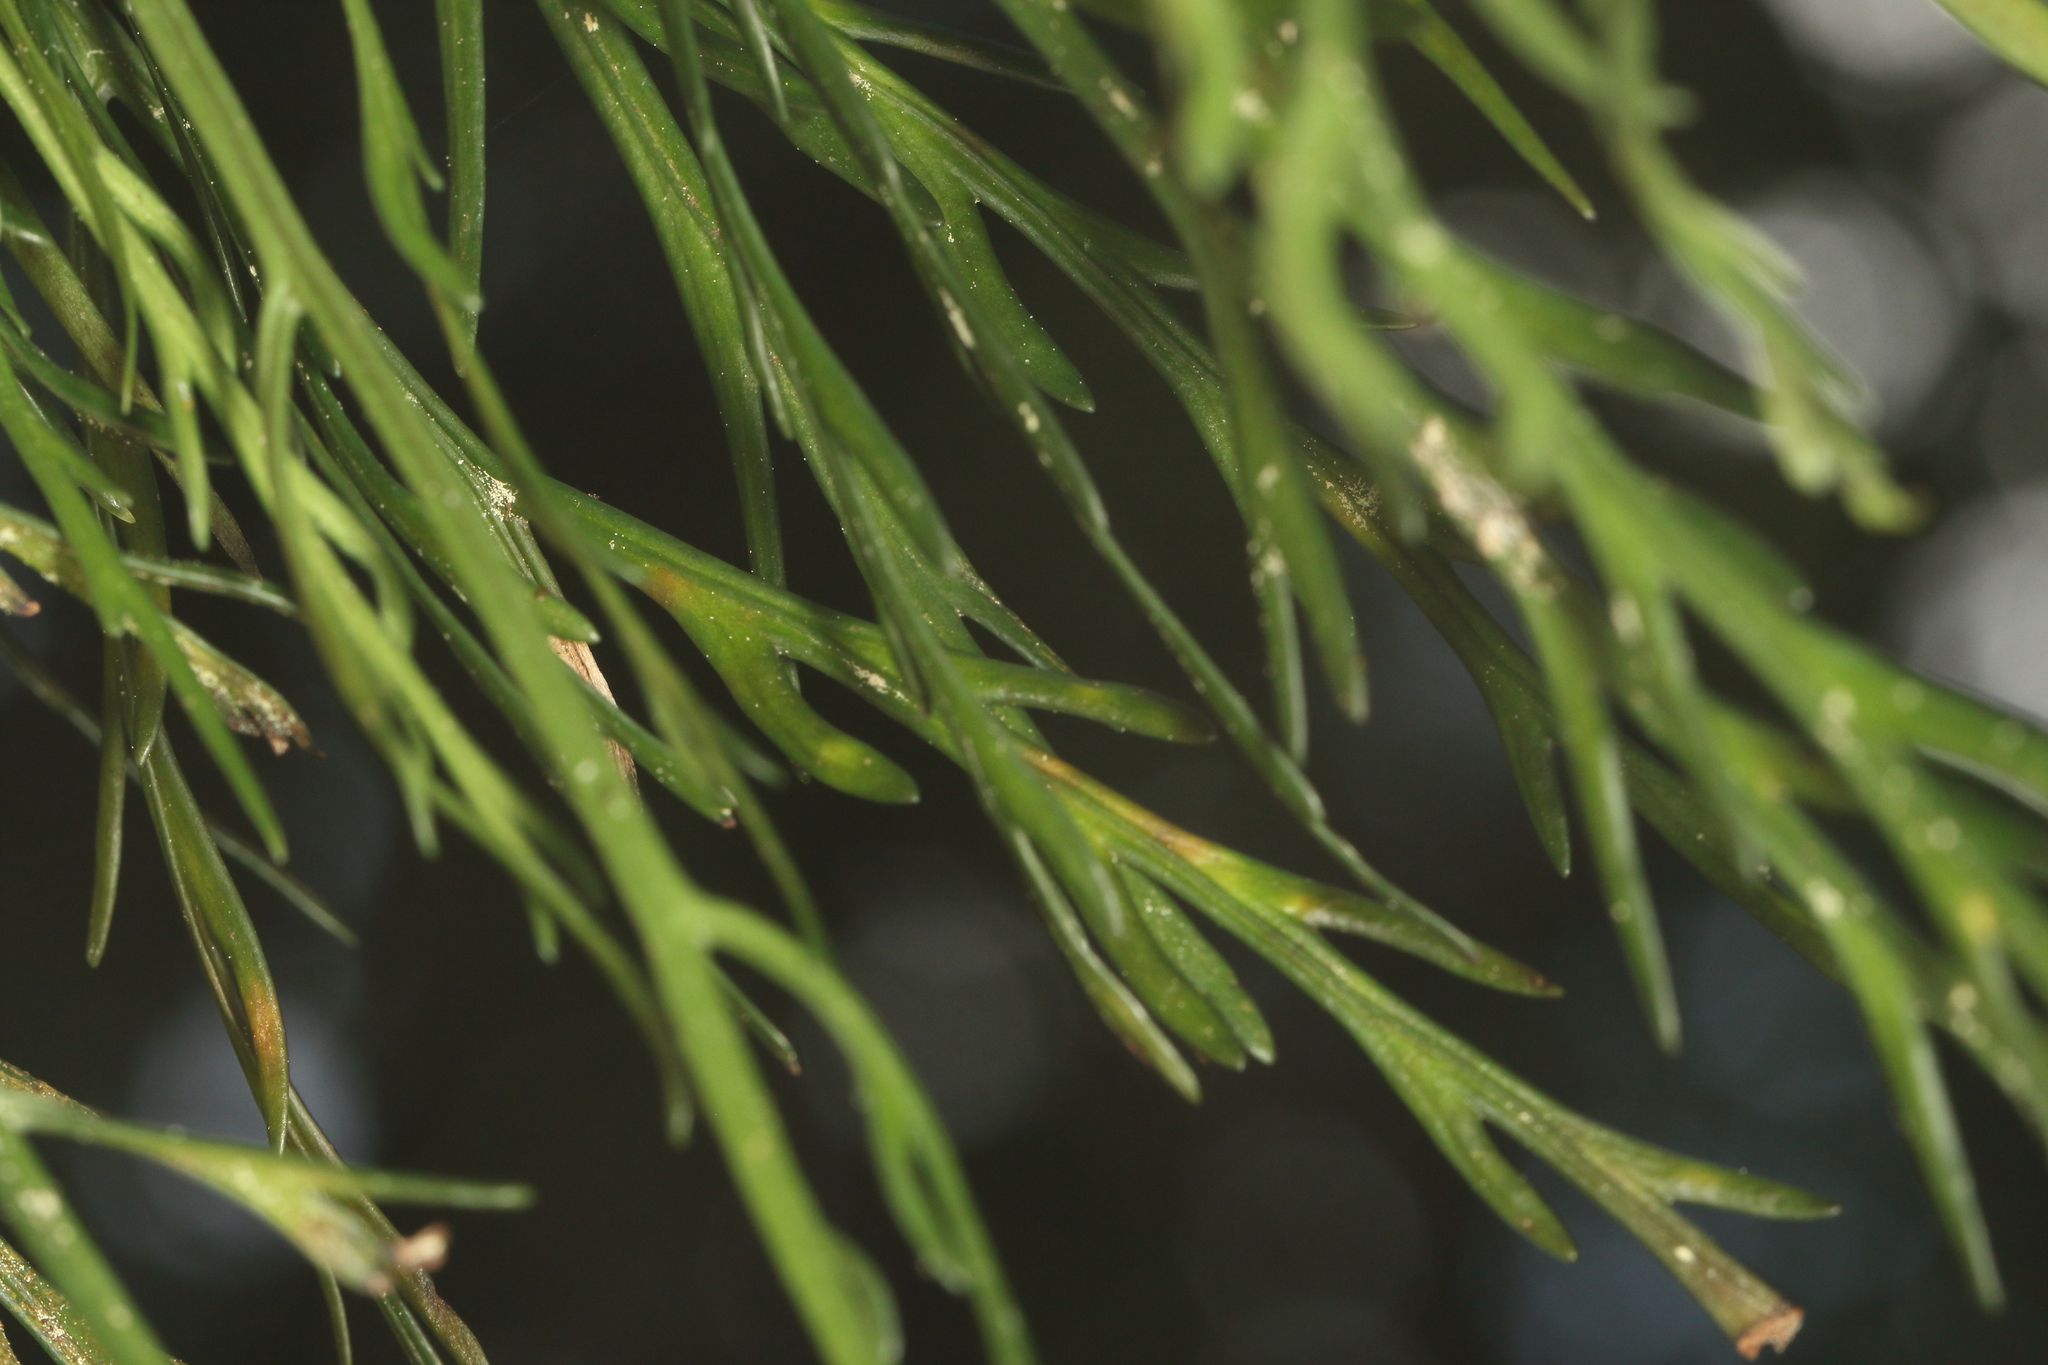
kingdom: Plantae
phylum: Tracheophyta
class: Polypodiopsida
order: Polypodiales
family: Aspleniaceae
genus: Asplenium
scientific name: Asplenium flaccidum
